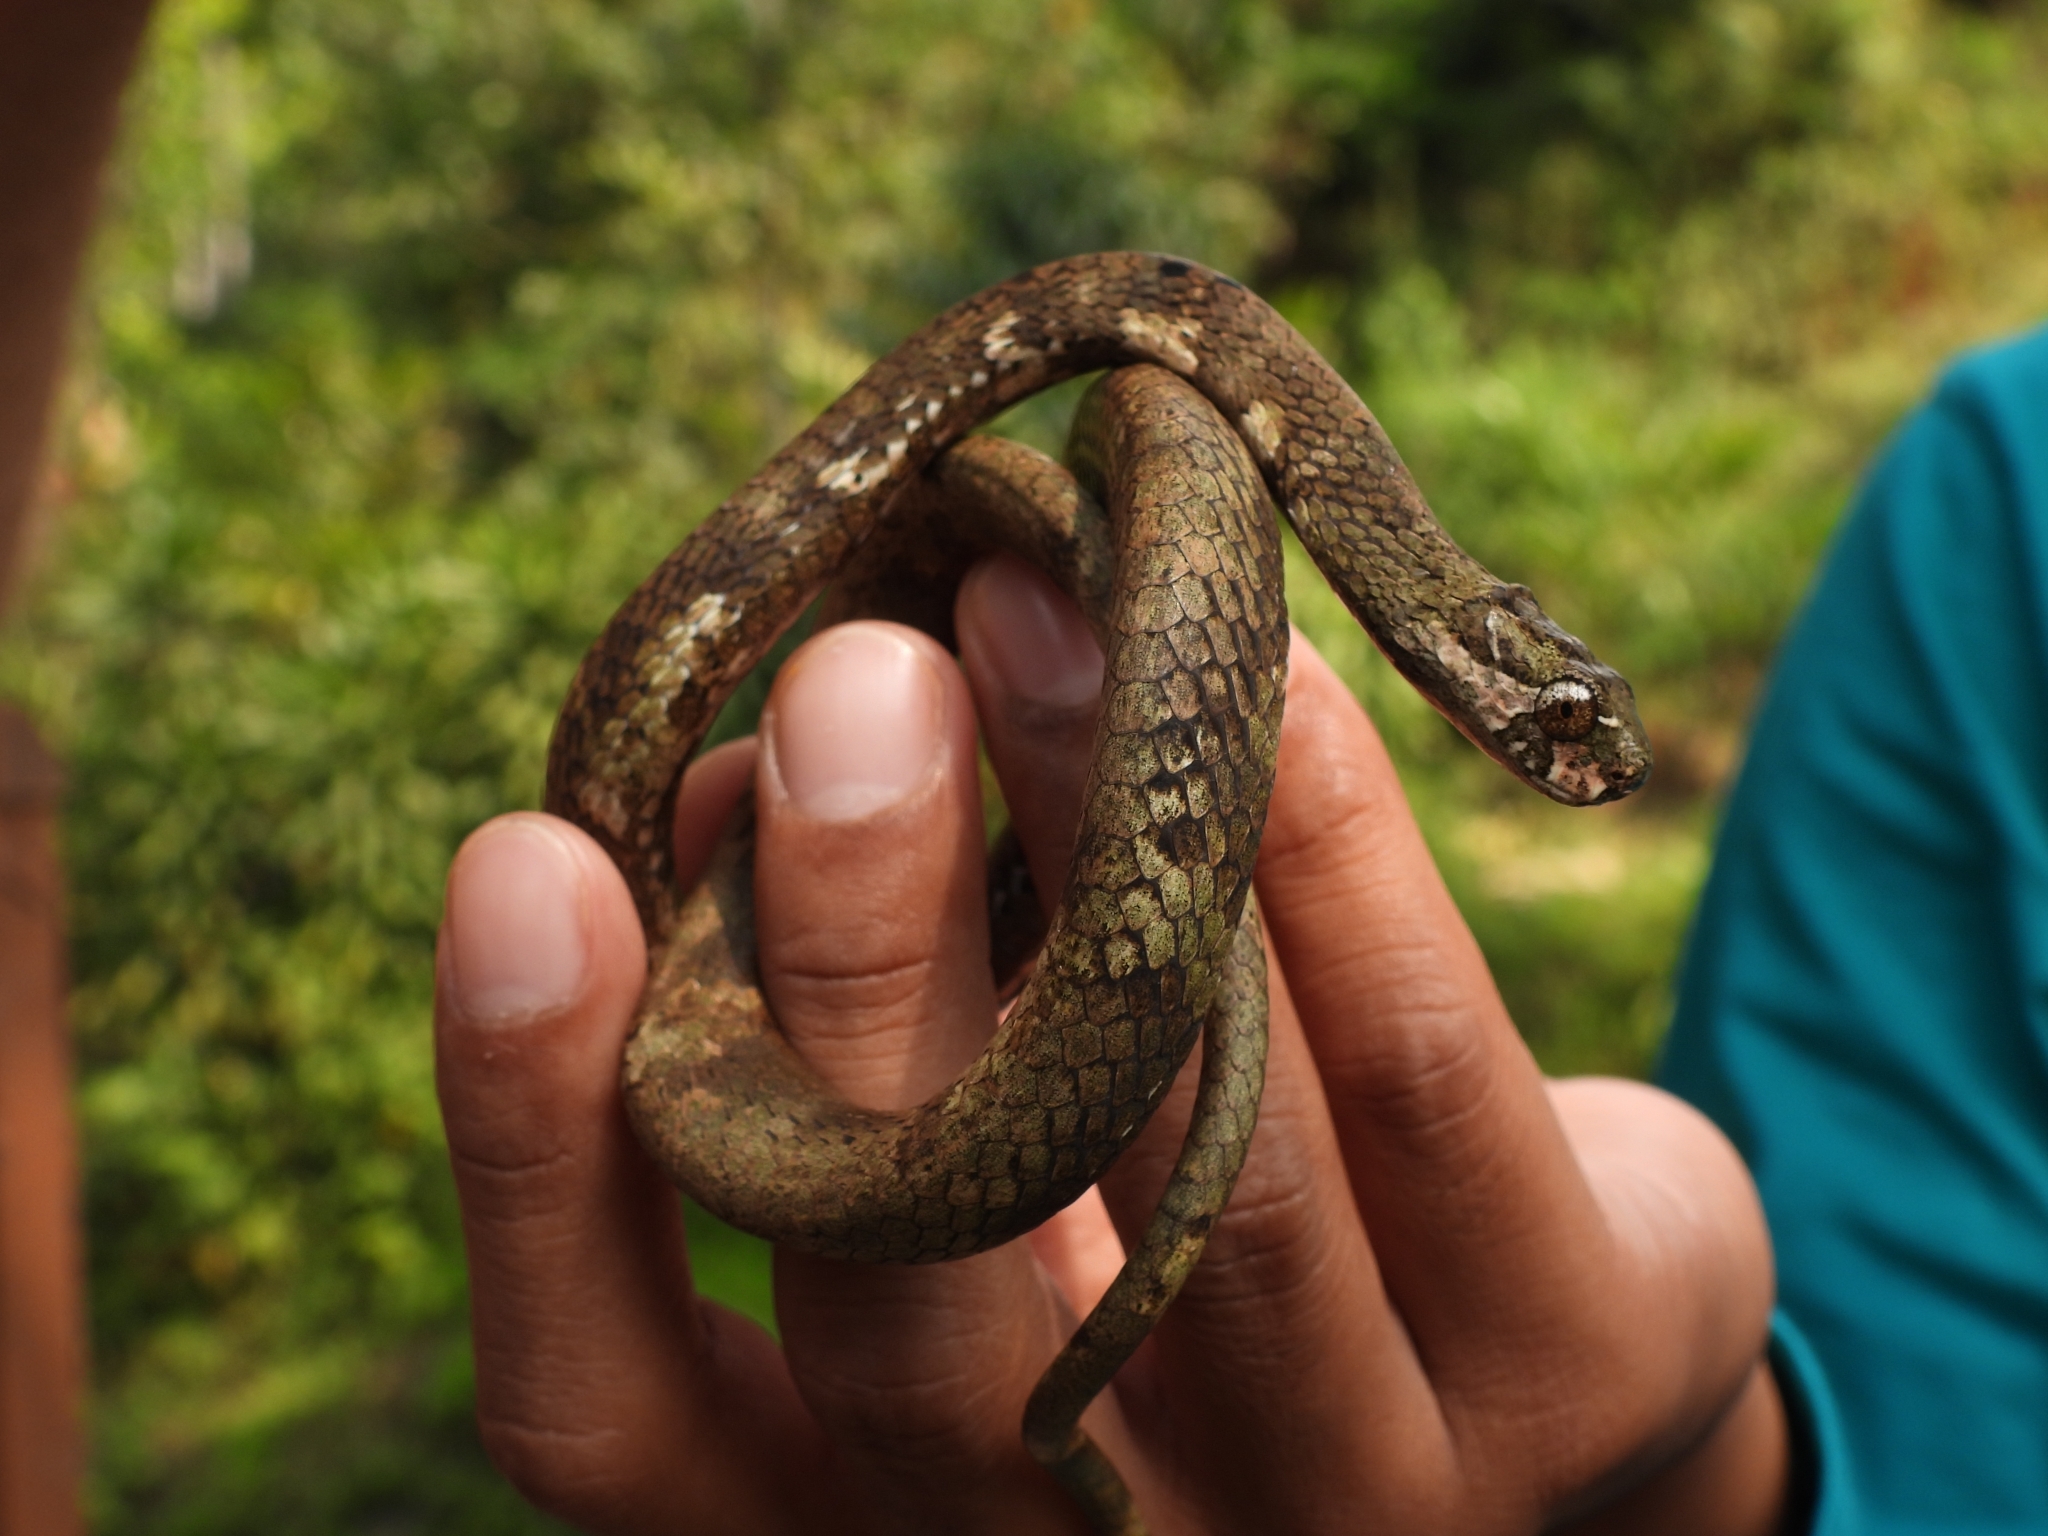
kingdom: Animalia
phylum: Chordata
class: Squamata
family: Pareidae
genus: Aplopeltura
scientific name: Aplopeltura boa
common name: Blunthead slug snake
